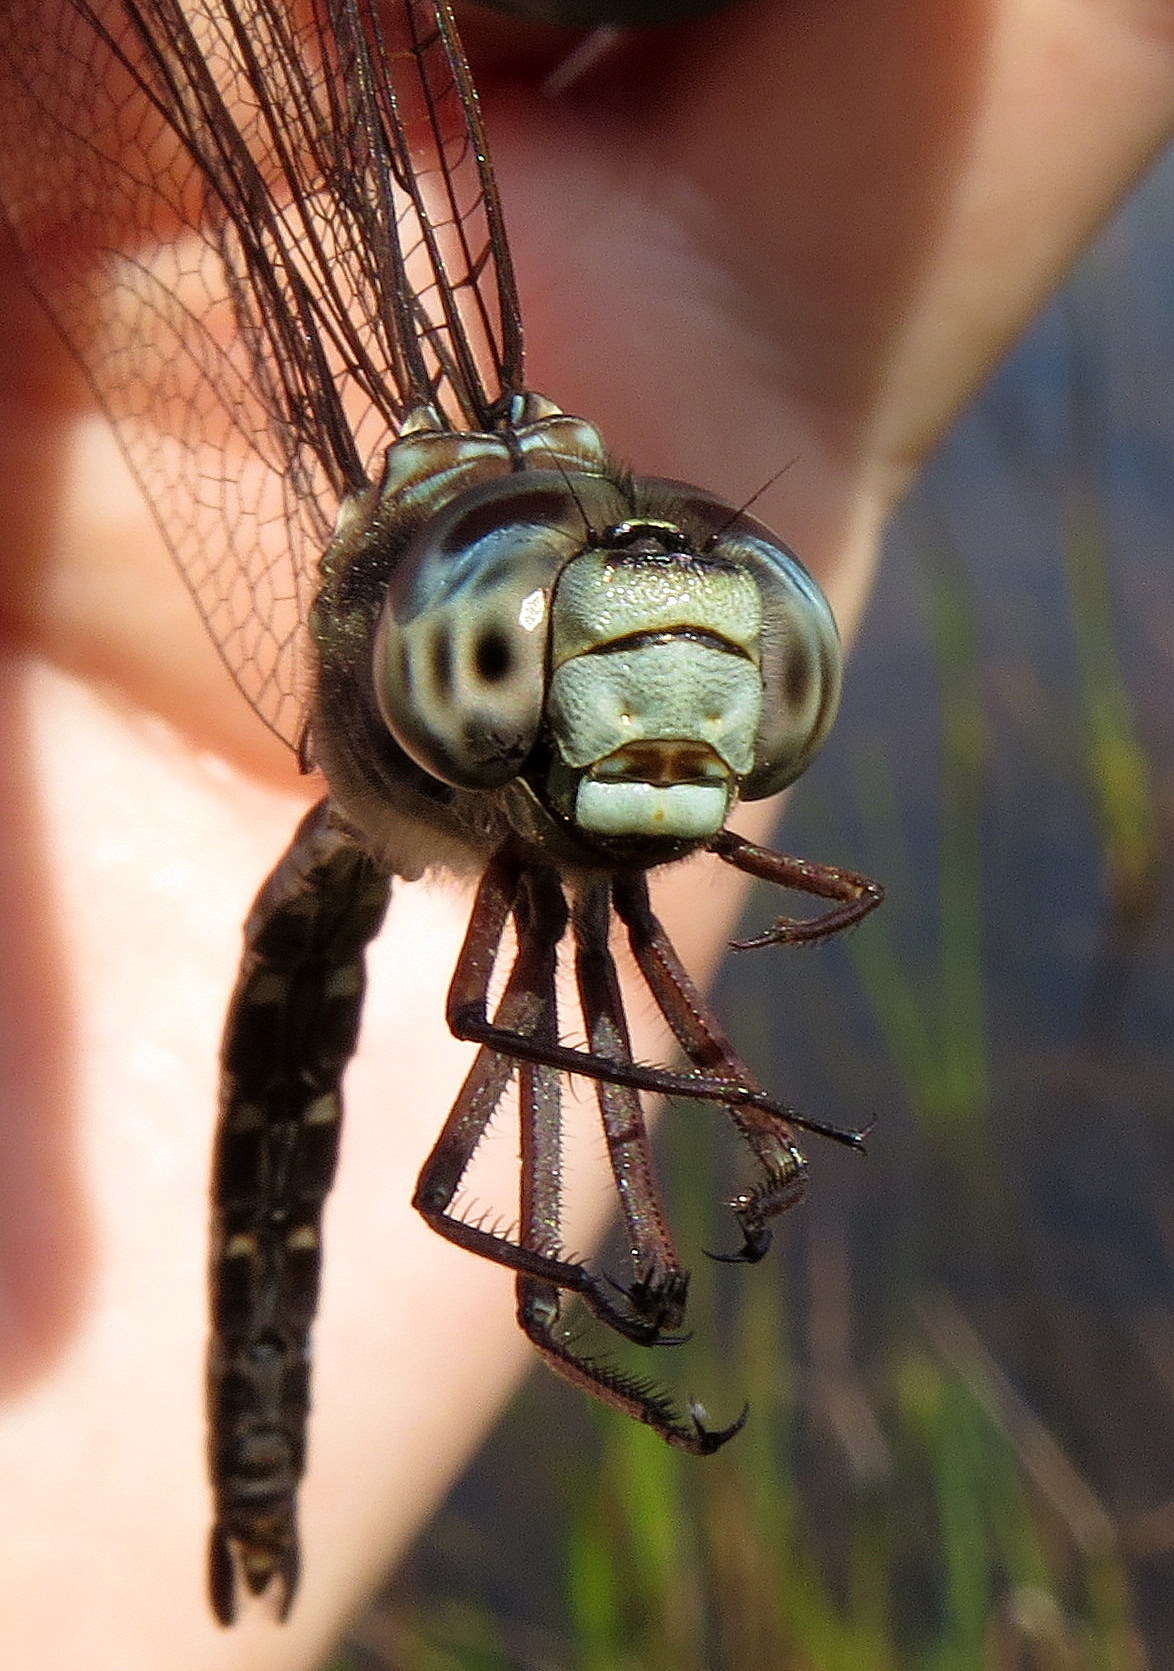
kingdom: Animalia
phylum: Arthropoda
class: Insecta
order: Odonata
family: Aeshnidae
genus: Aeshna
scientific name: Aeshna clepsydra
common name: Mottled darner
